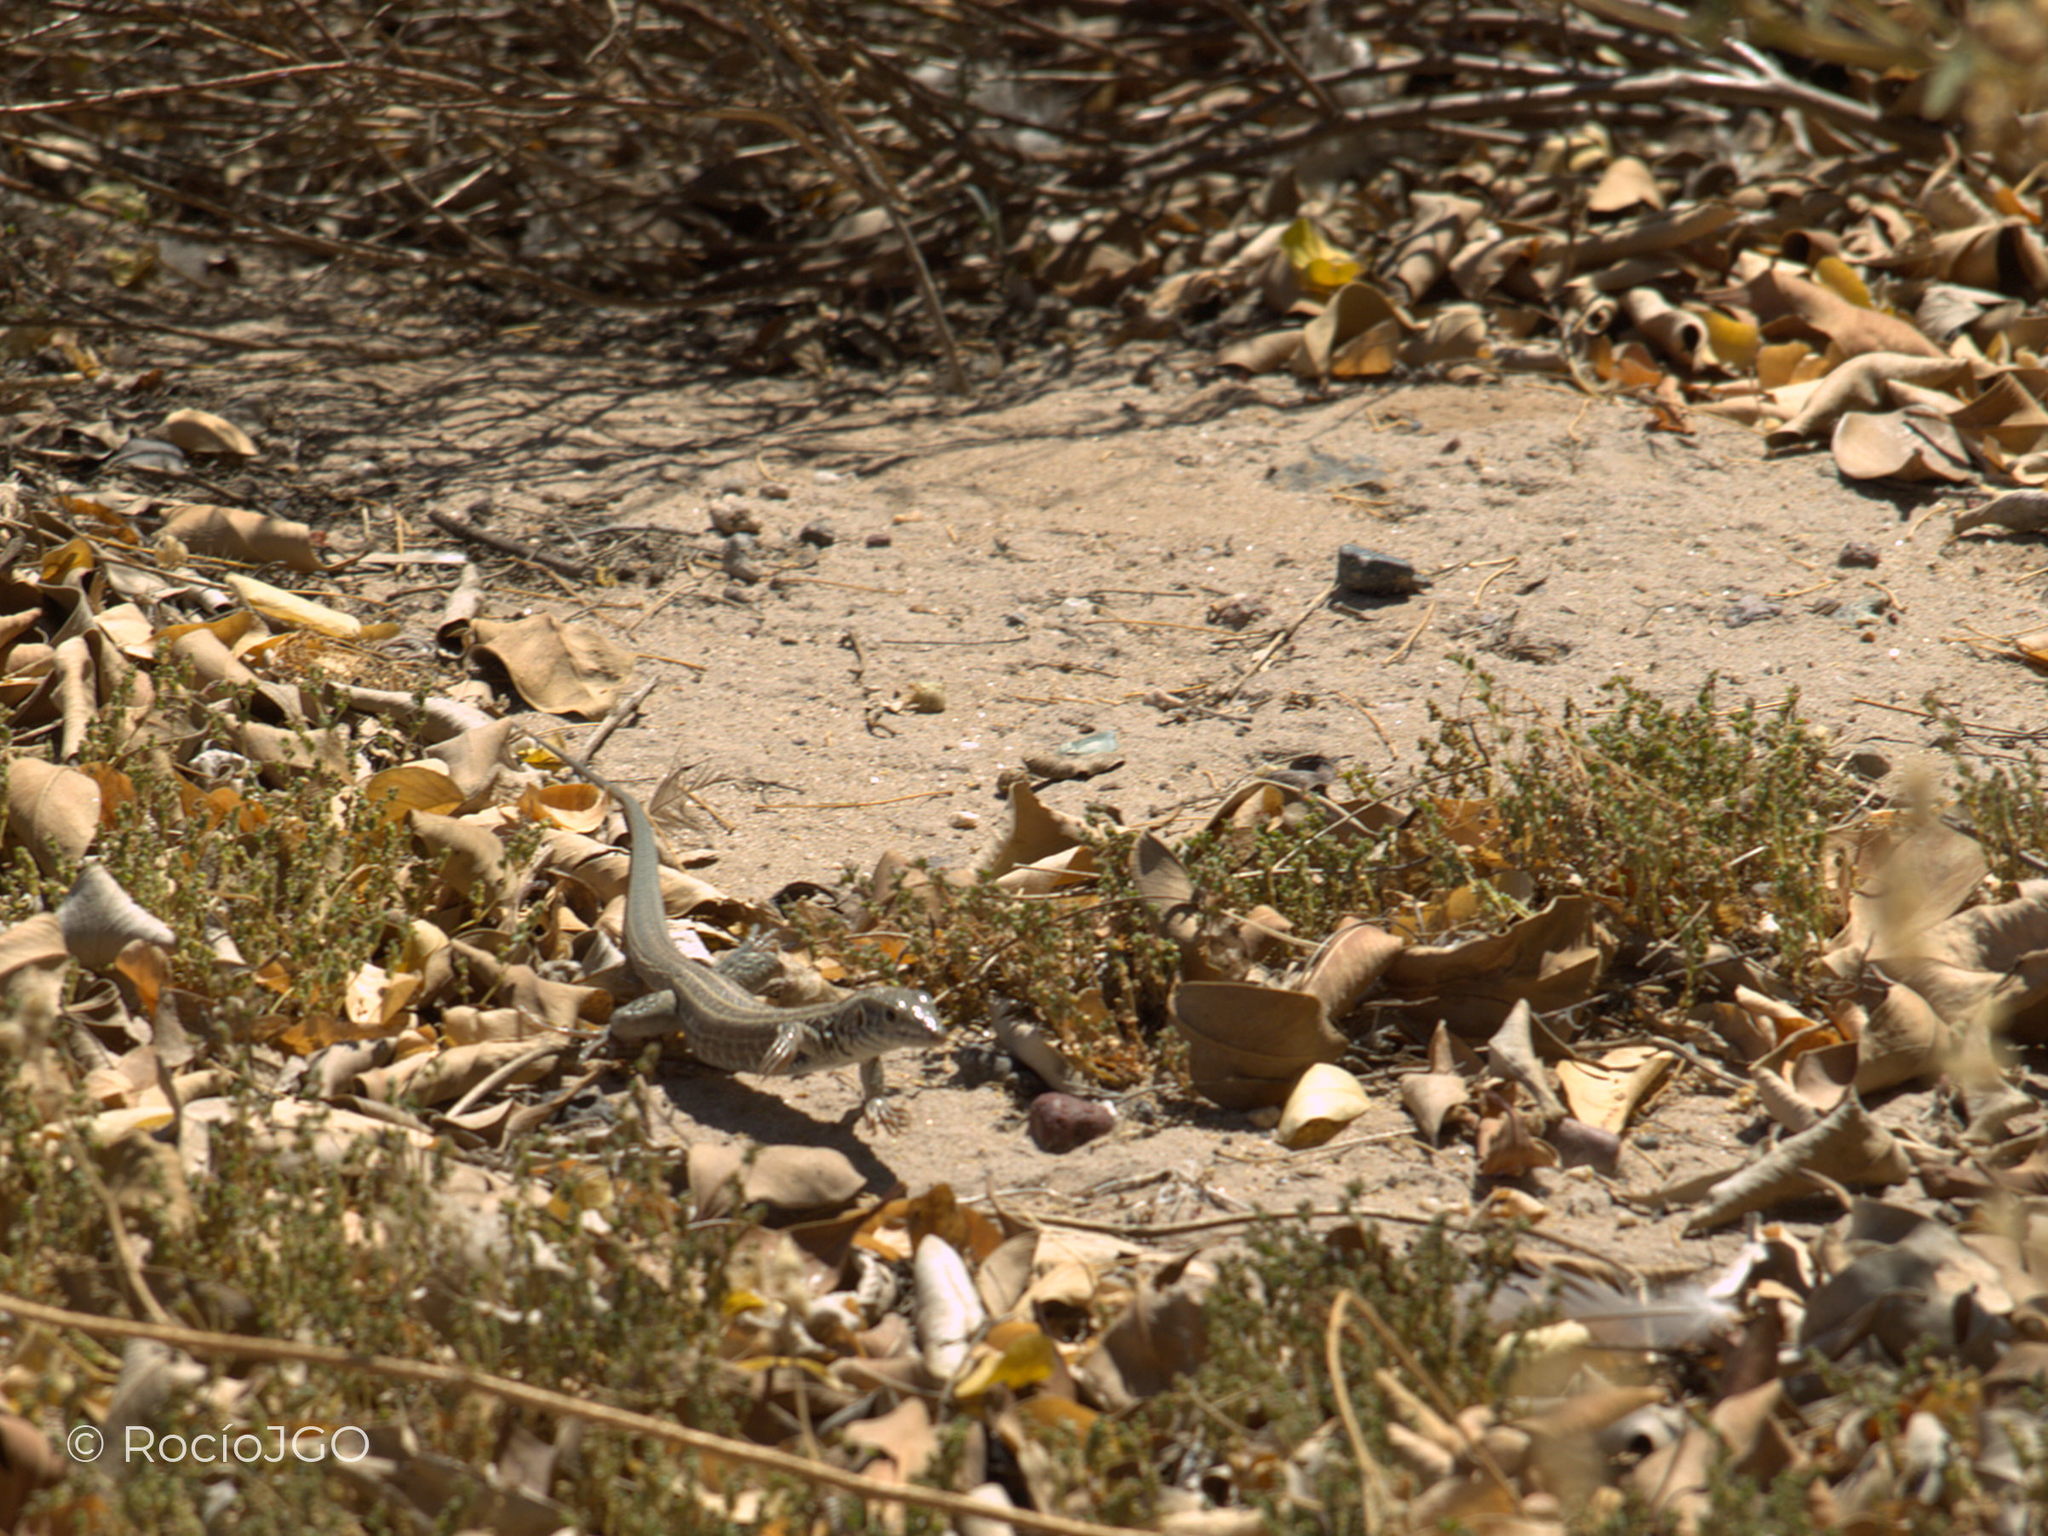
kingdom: Animalia
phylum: Chordata
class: Squamata
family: Teiidae
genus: Aspidoscelis
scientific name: Aspidoscelis tigris
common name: Tiger whiptail
